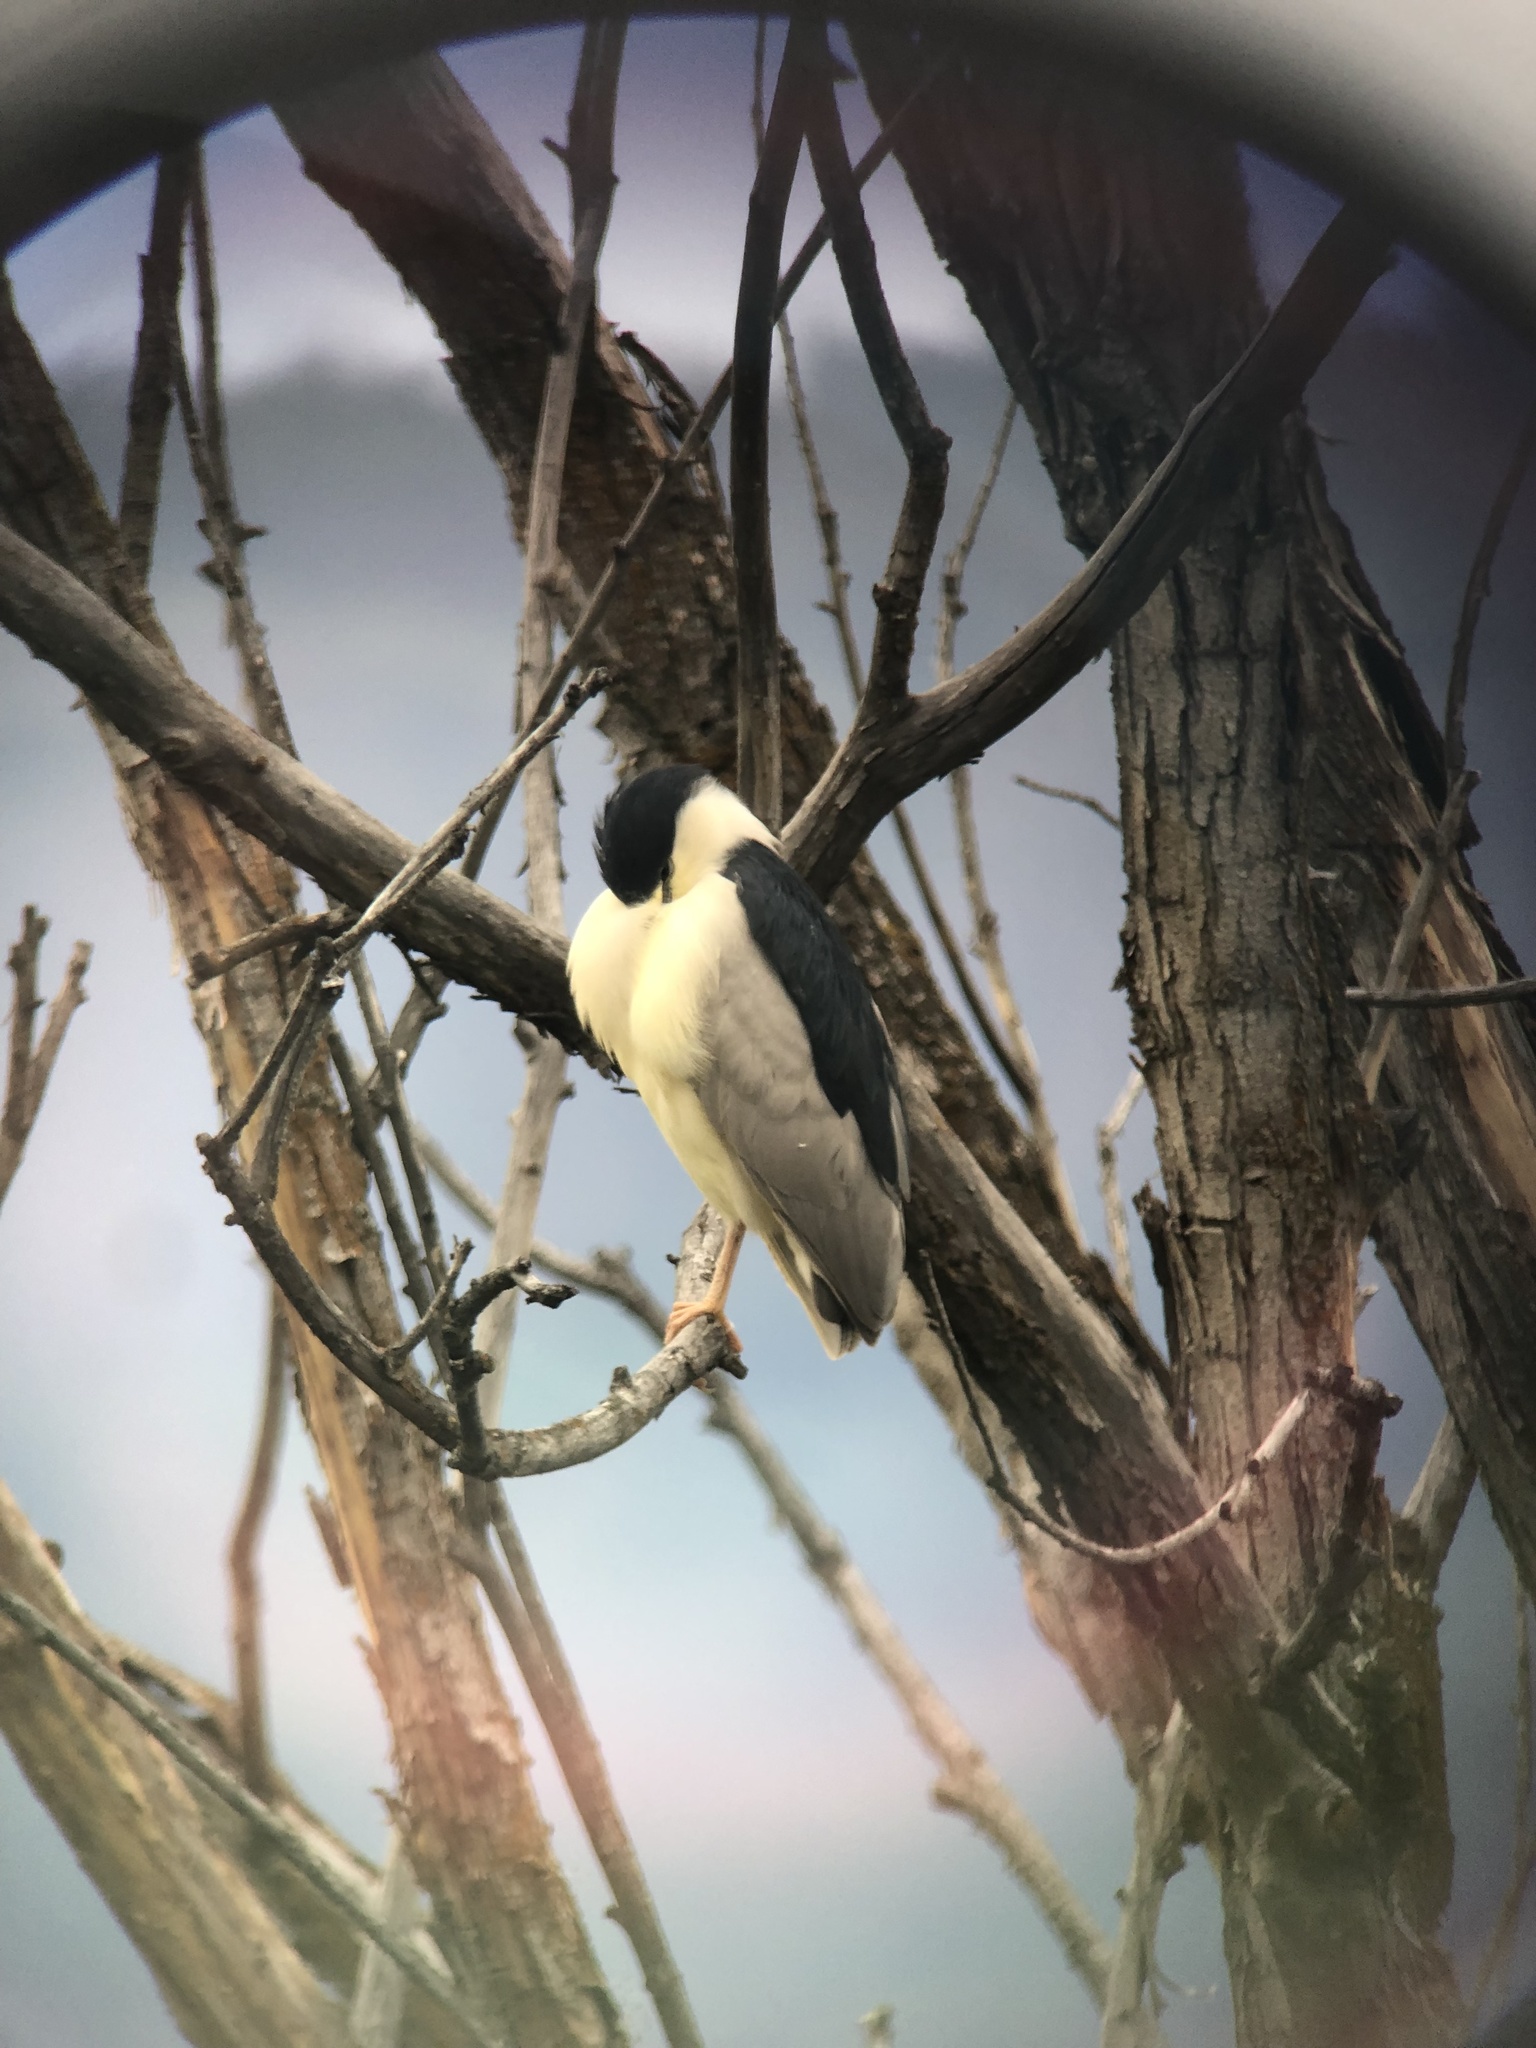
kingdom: Animalia
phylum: Chordata
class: Aves
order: Pelecaniformes
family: Ardeidae
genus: Nycticorax
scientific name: Nycticorax nycticorax
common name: Black-crowned night heron
